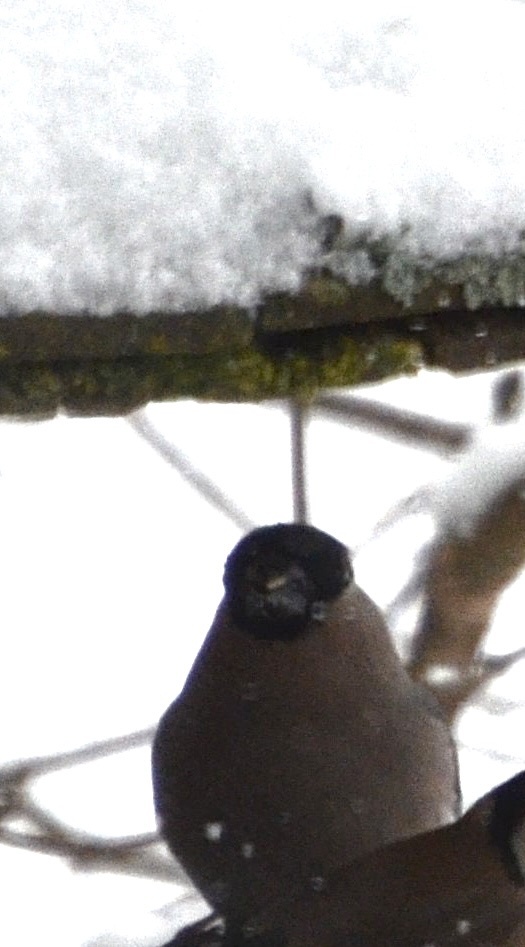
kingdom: Animalia
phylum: Chordata
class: Aves
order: Passeriformes
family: Fringillidae
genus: Pyrrhula
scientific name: Pyrrhula pyrrhula
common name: Eurasian bullfinch
